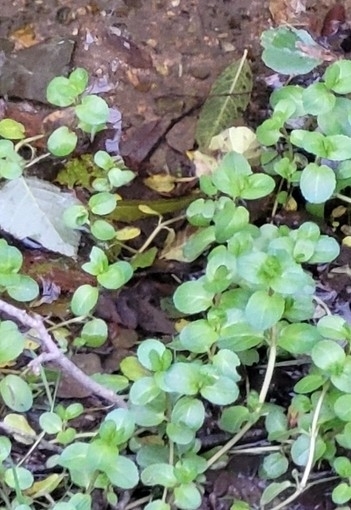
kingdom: Plantae
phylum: Tracheophyta
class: Magnoliopsida
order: Lamiales
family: Plantaginaceae
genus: Veronica
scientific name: Veronica beccabunga
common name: Brooklime
